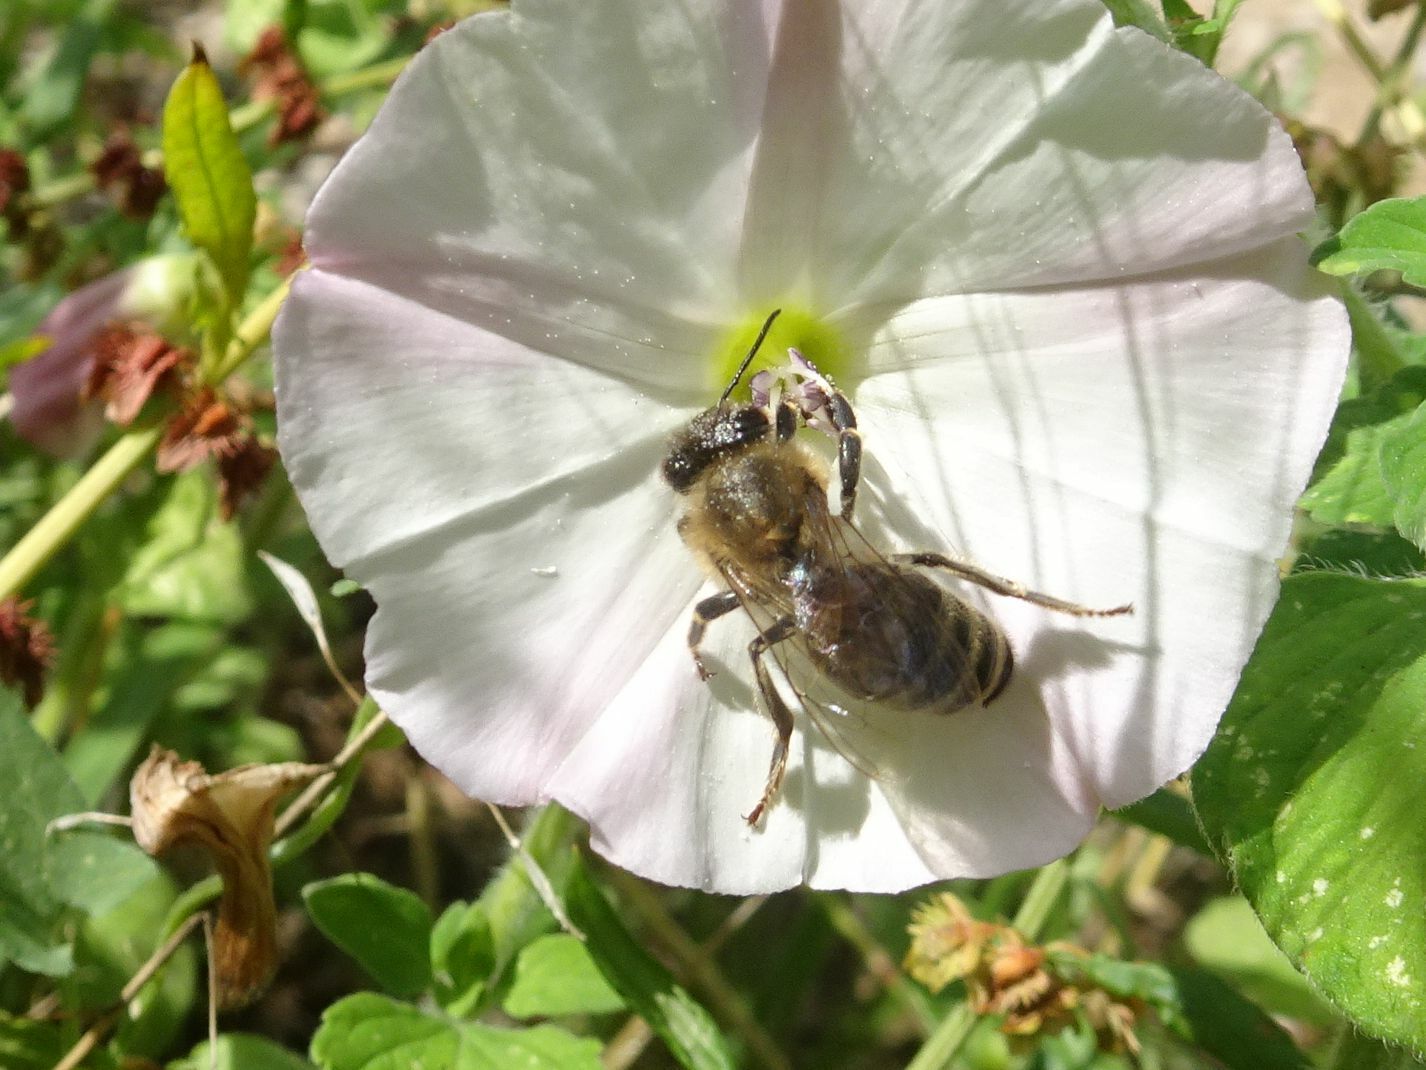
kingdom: Animalia
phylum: Arthropoda
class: Insecta
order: Hymenoptera
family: Apidae
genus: Apis
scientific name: Apis mellifera
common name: Honey bee
